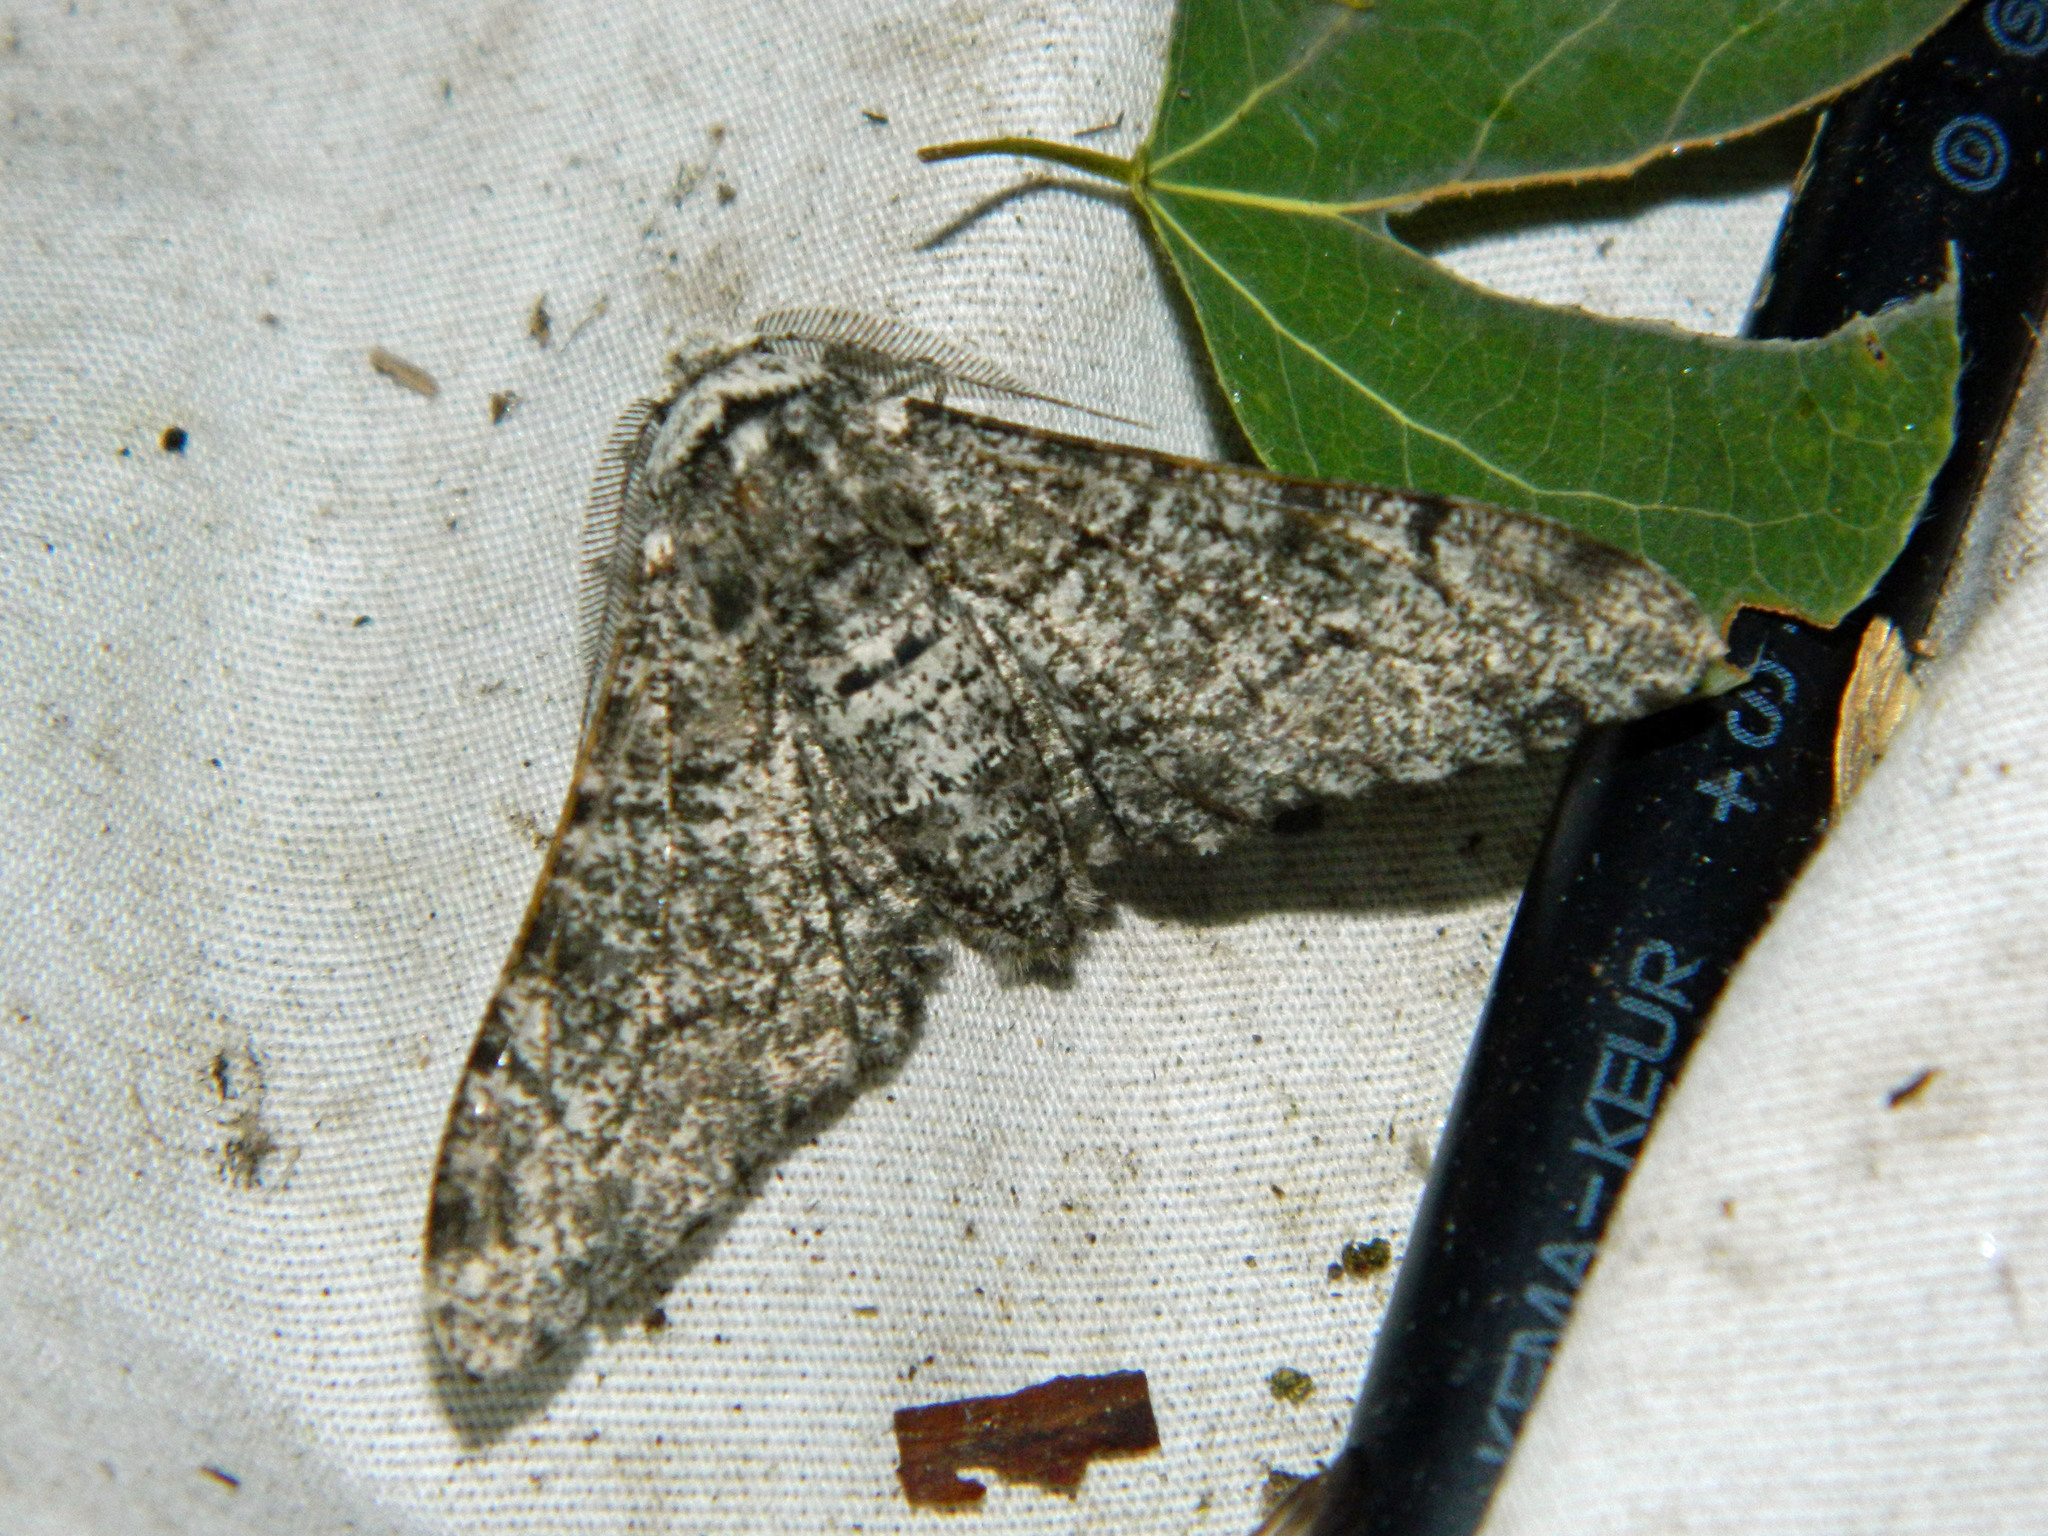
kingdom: Animalia
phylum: Arthropoda
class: Insecta
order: Lepidoptera
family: Geometridae
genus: Biston
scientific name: Biston betularia
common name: Peppered moth
